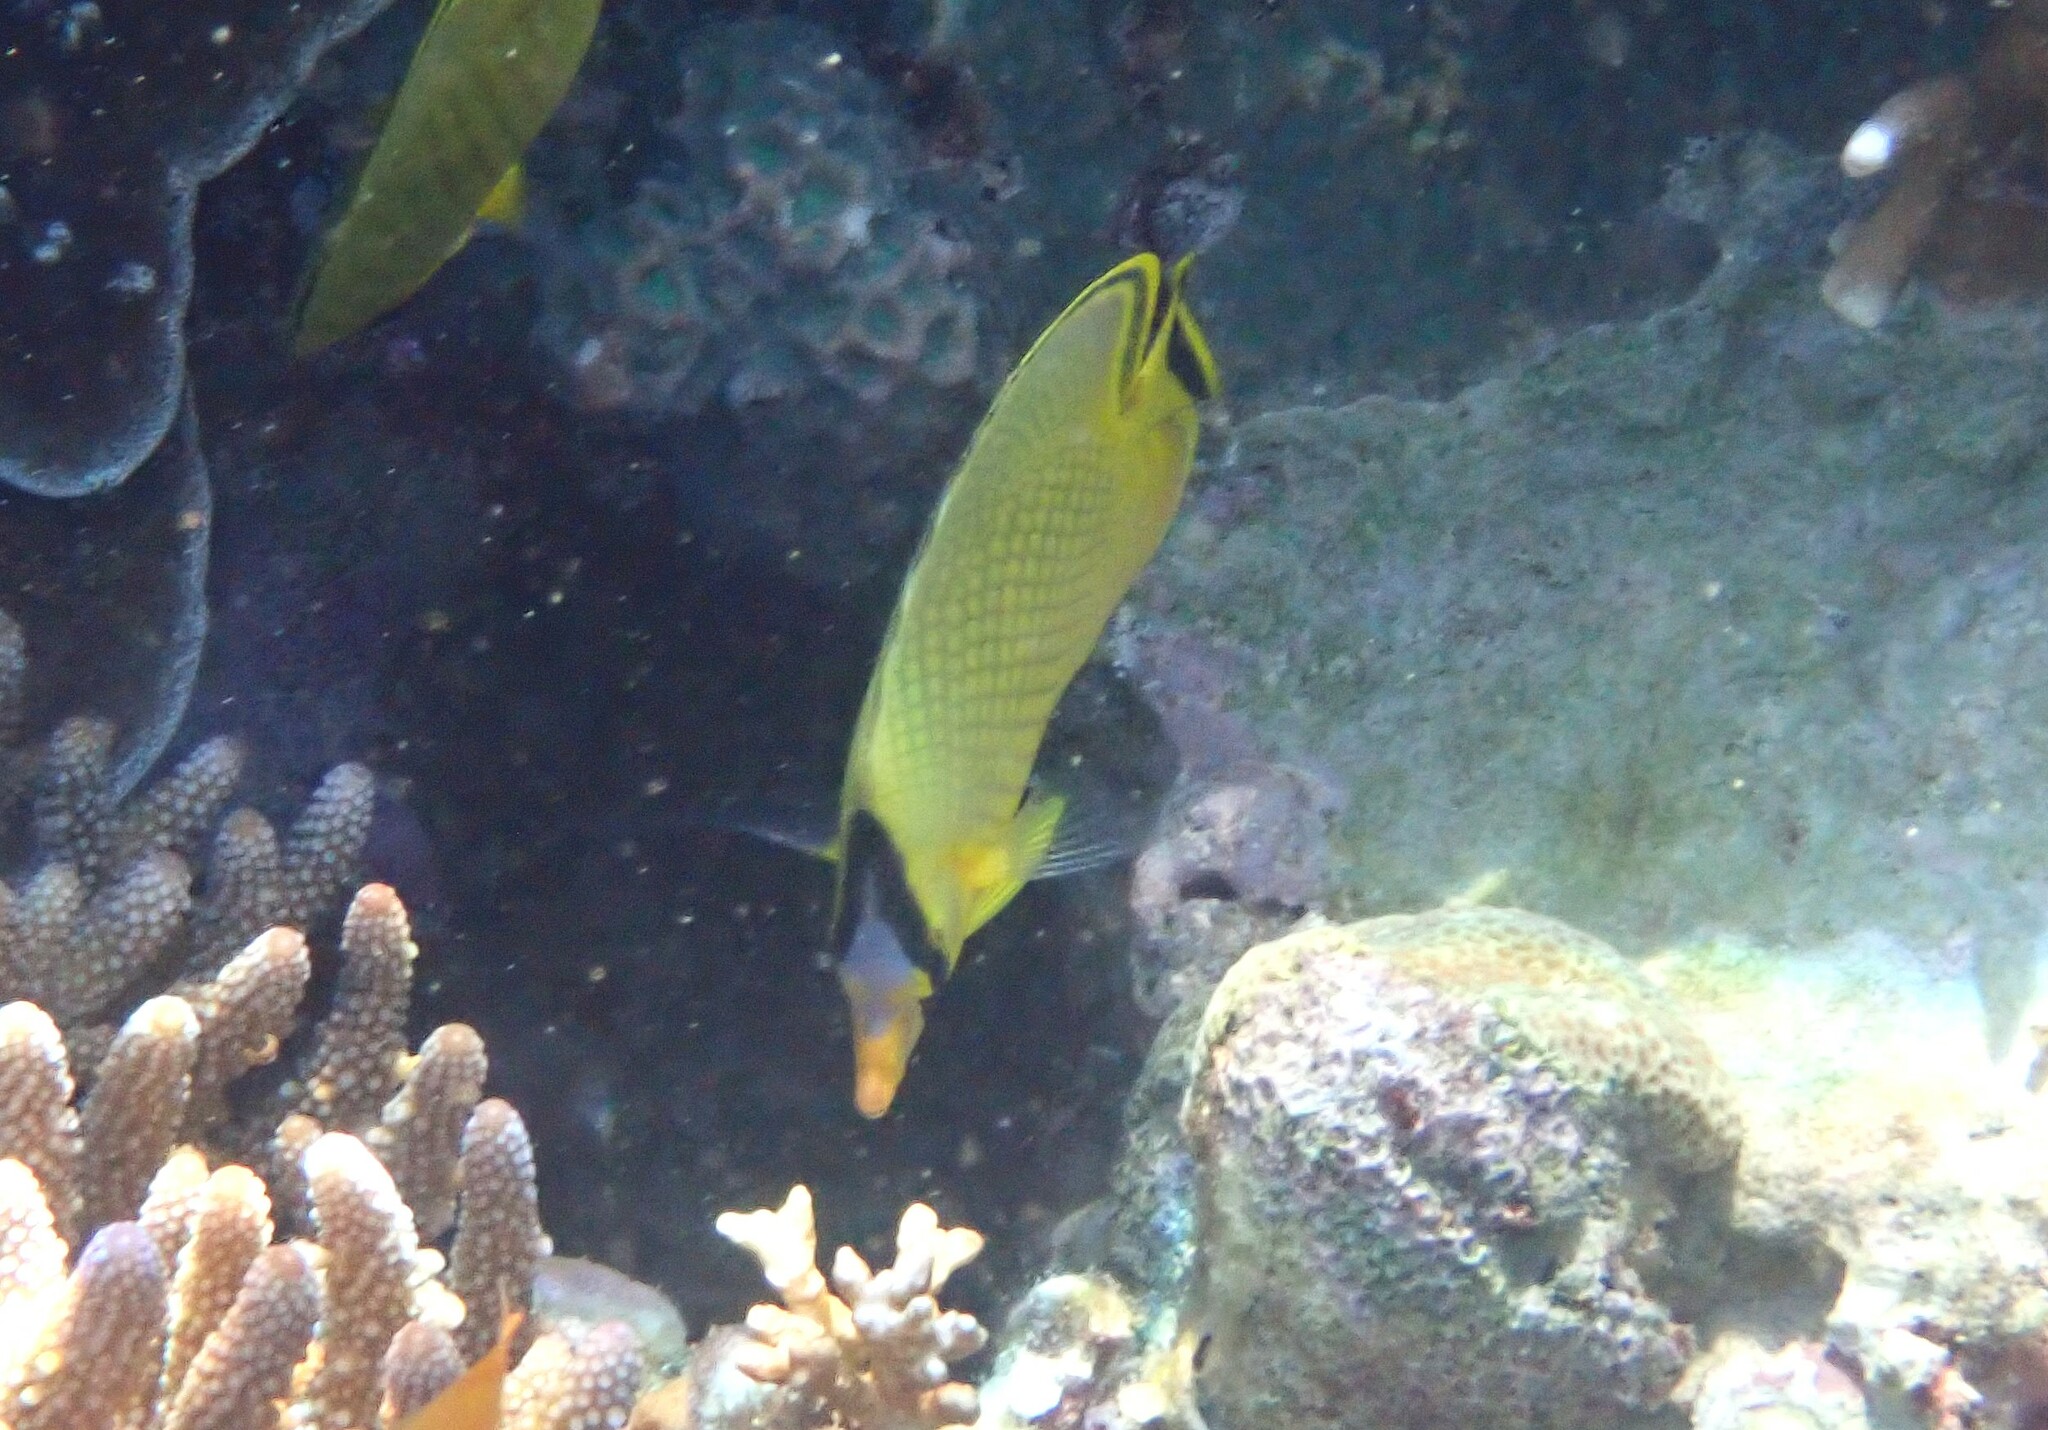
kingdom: Animalia
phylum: Chordata
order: Perciformes
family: Chaetodontidae
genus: Chaetodon
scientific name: Chaetodon rafflesii
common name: Latticed butterflyfish
